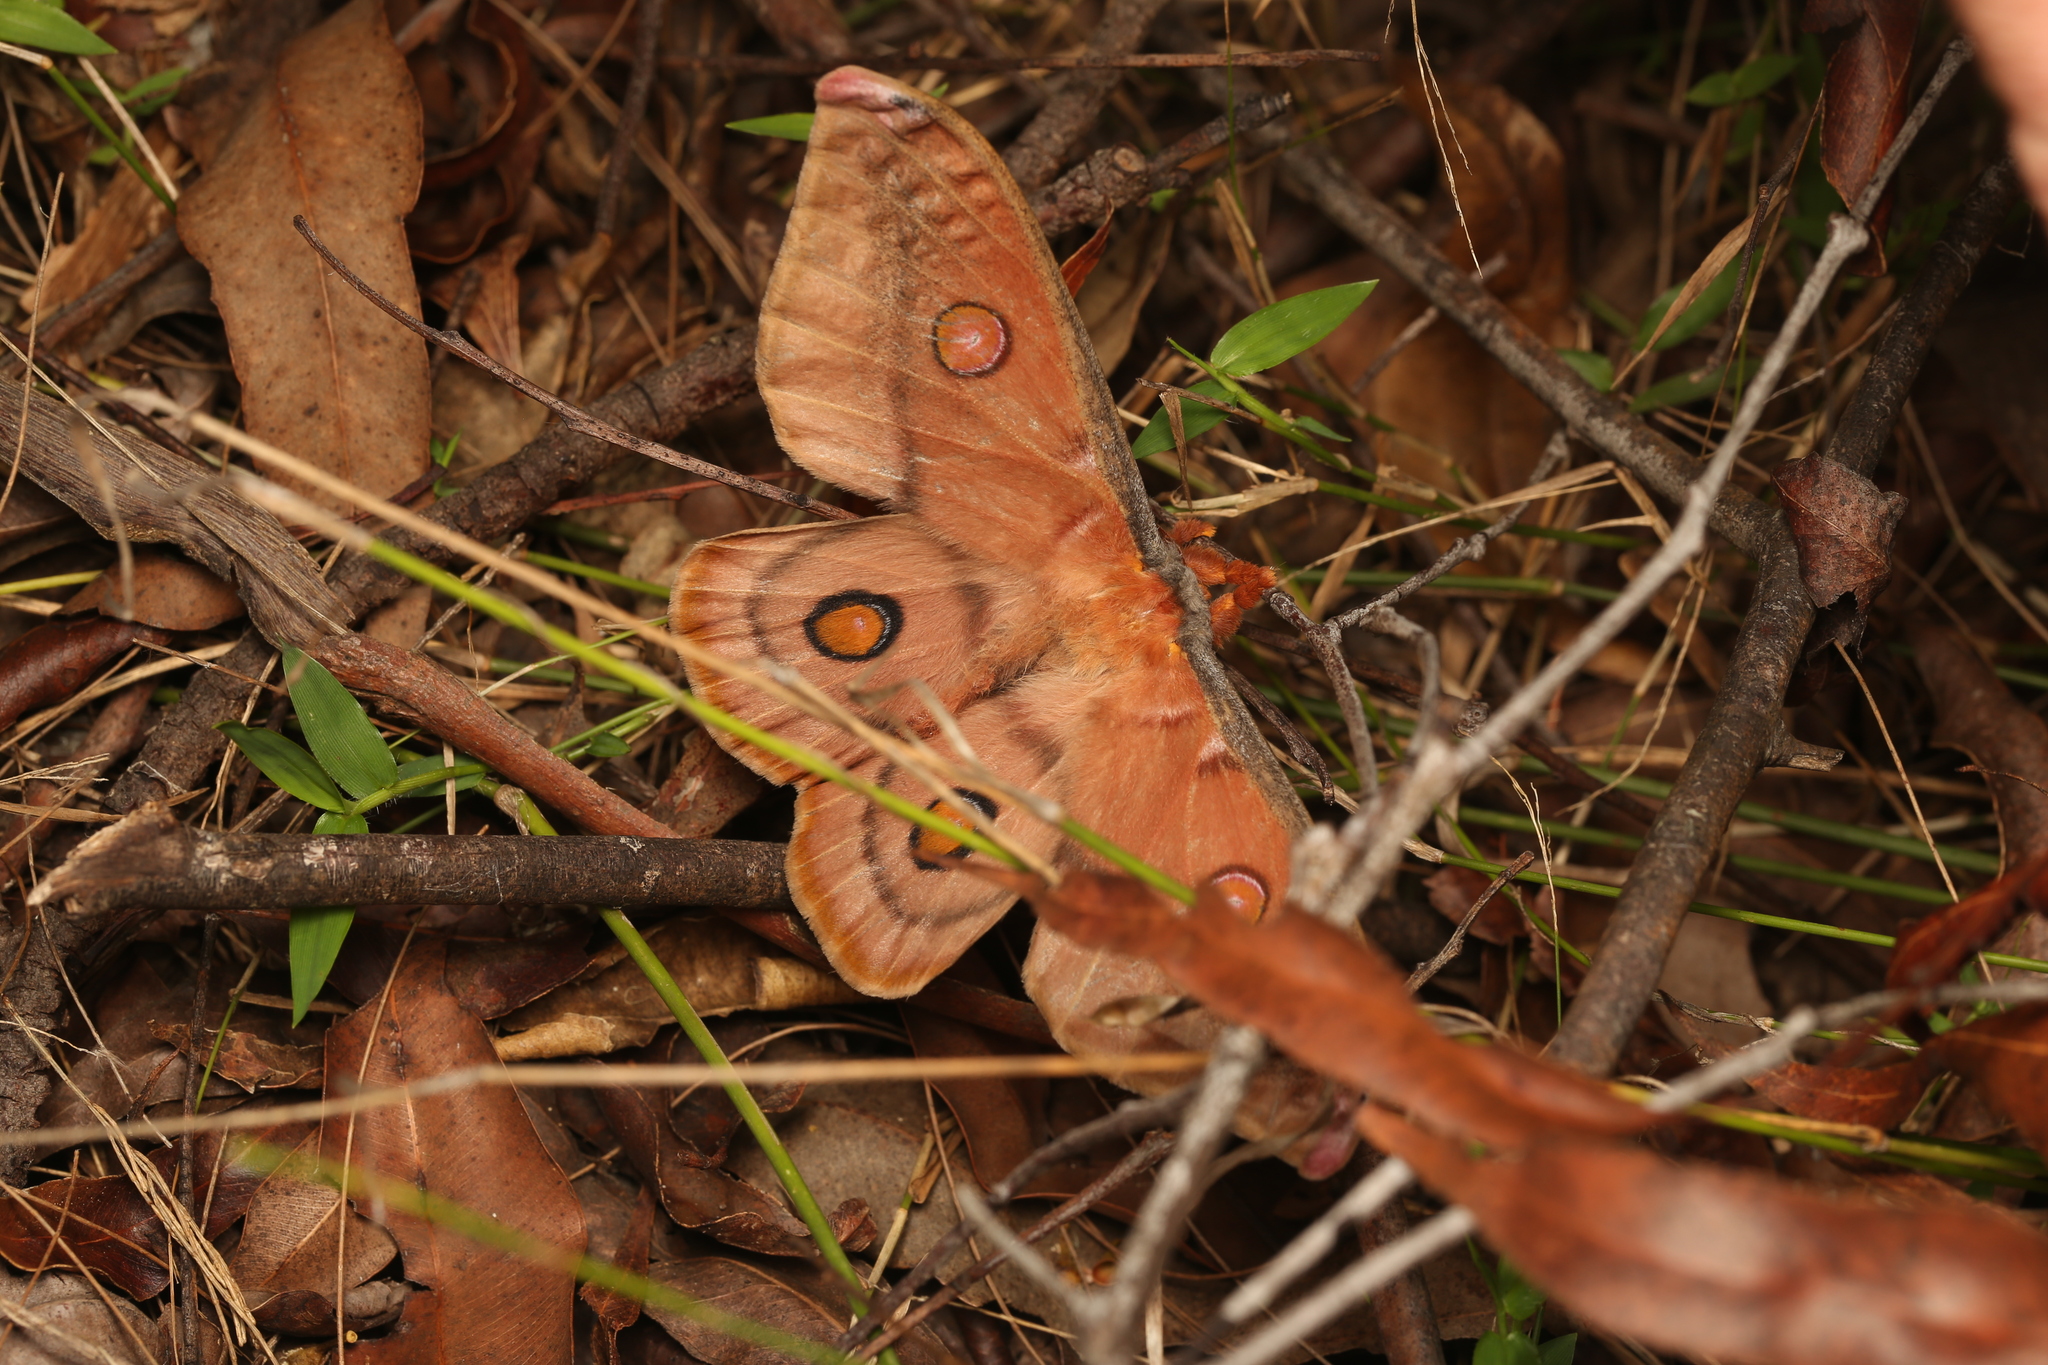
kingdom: Animalia
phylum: Arthropoda
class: Insecta
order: Lepidoptera
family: Saturniidae
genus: Opodiphthera
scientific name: Opodiphthera
